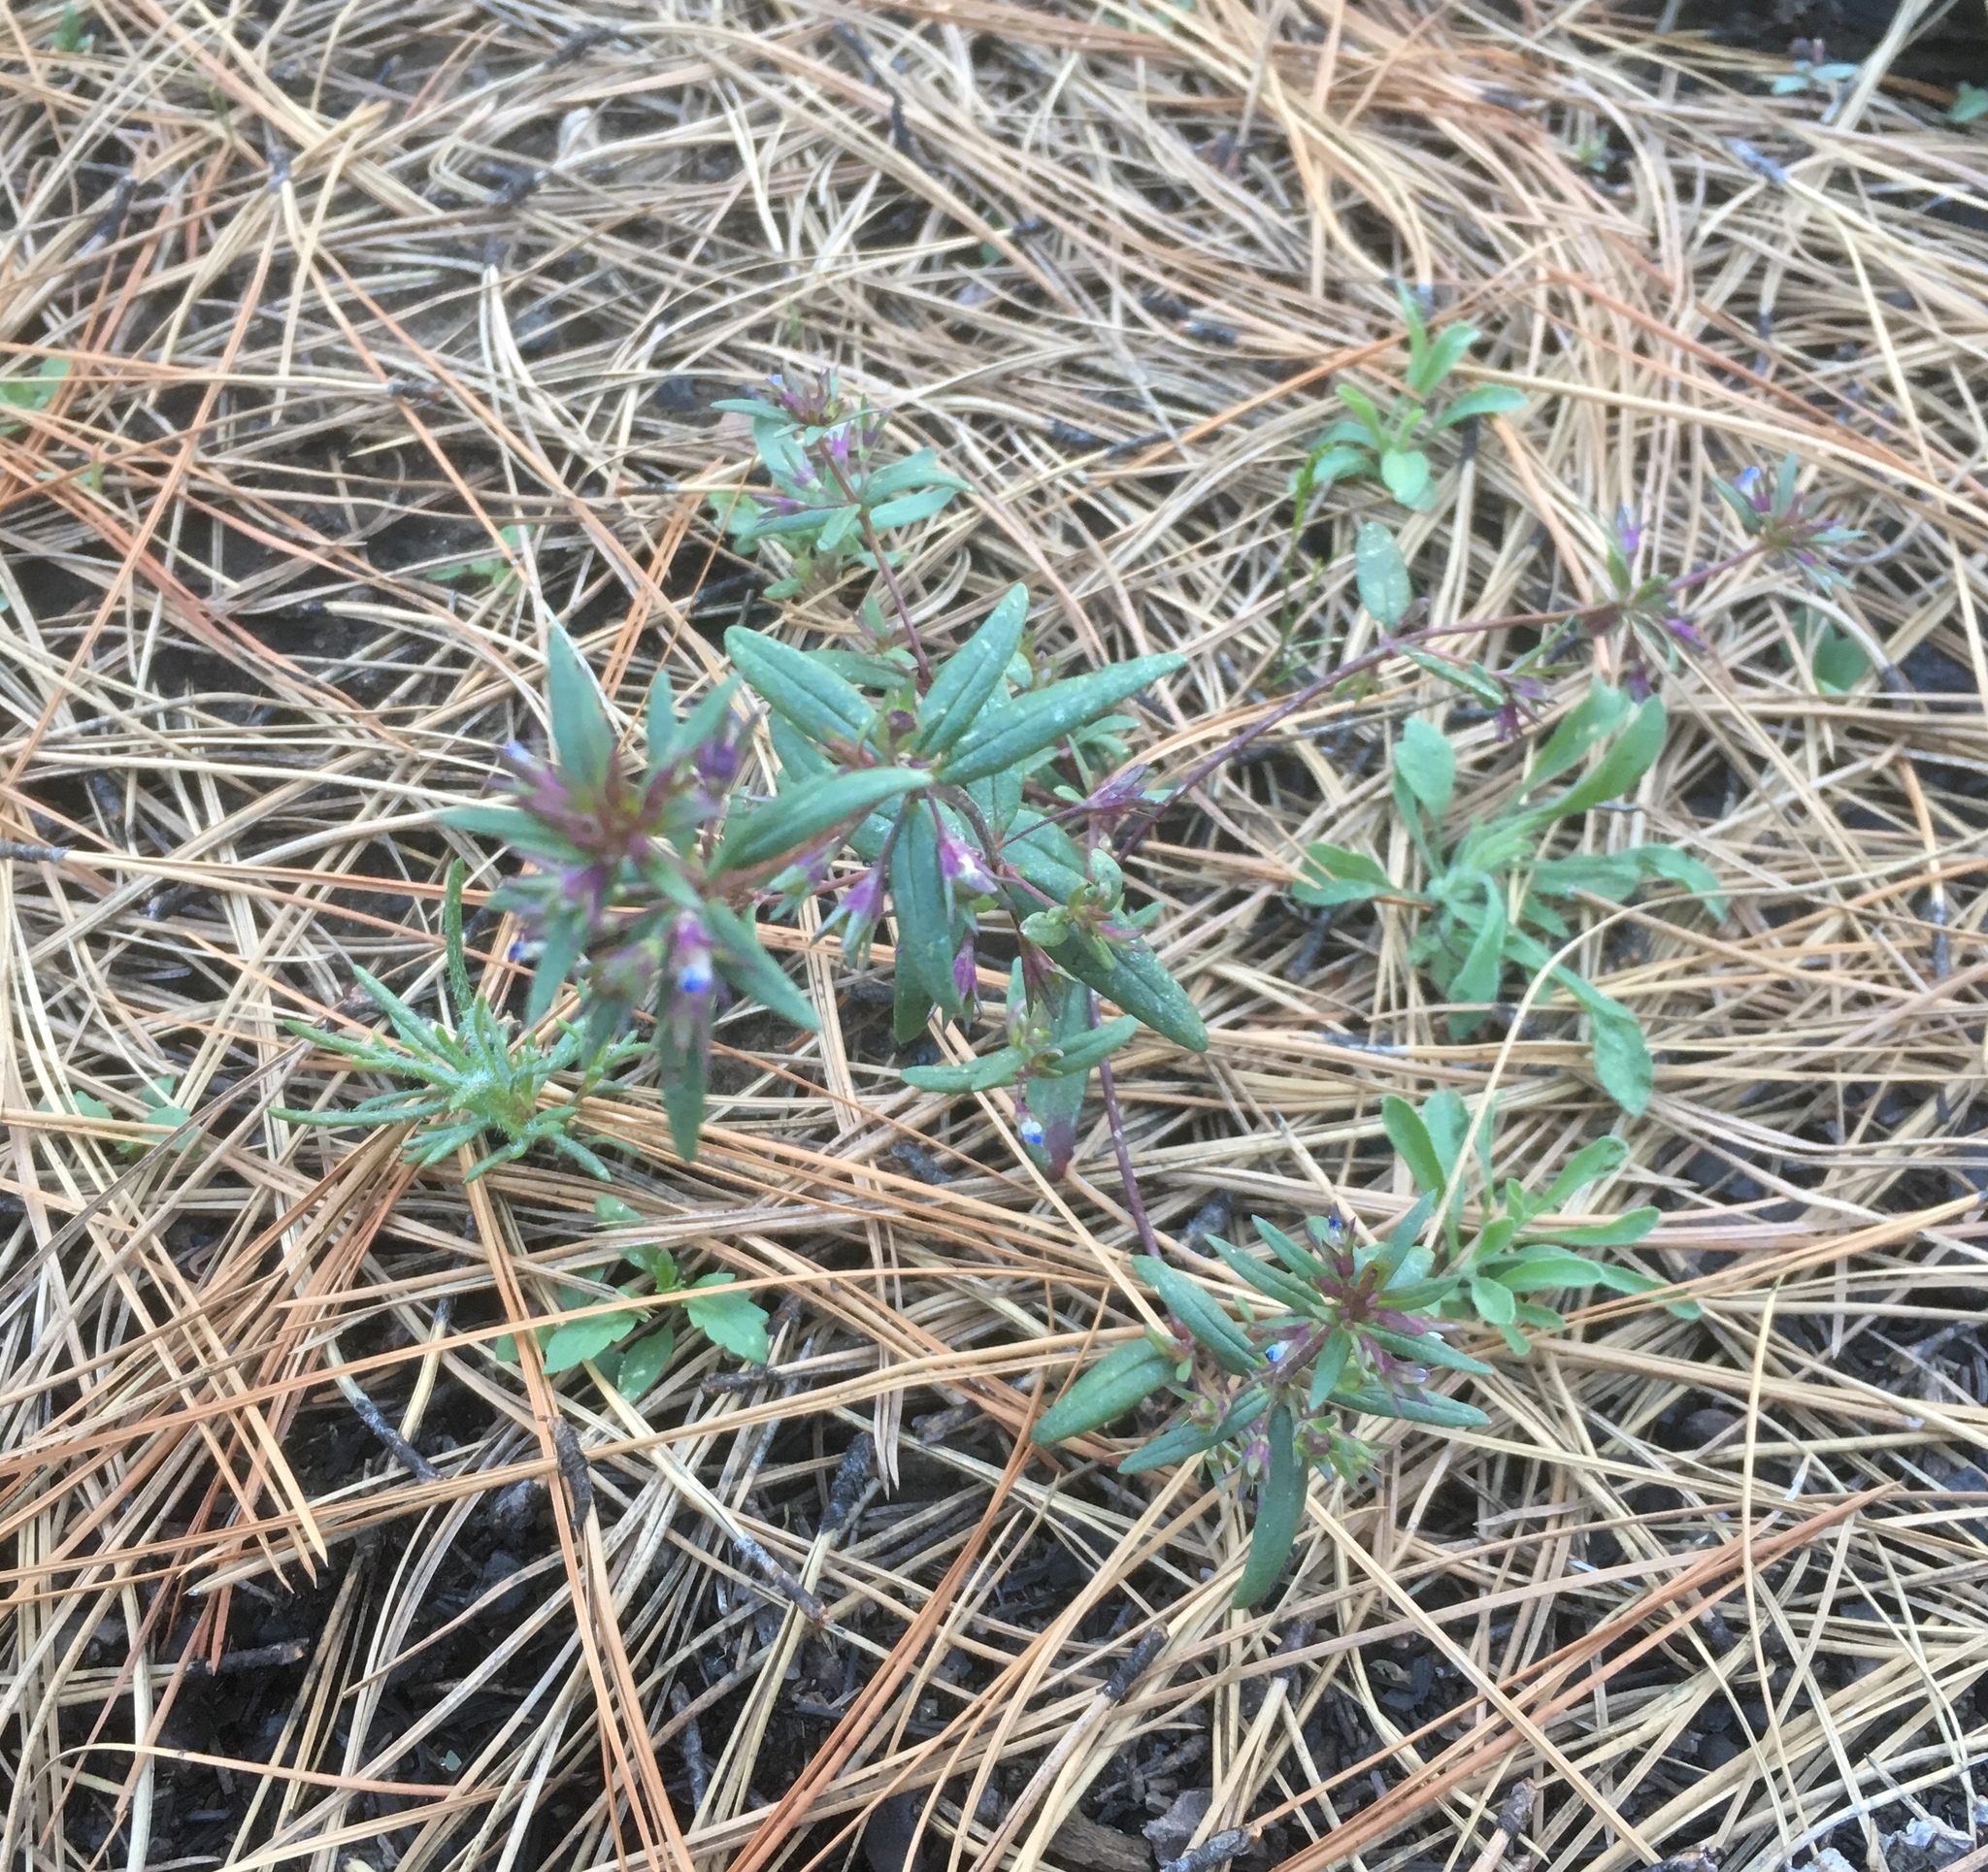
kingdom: Plantae
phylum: Tracheophyta
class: Magnoliopsida
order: Lamiales
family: Plantaginaceae
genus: Collinsia
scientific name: Collinsia parviflora
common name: Blue-lips
